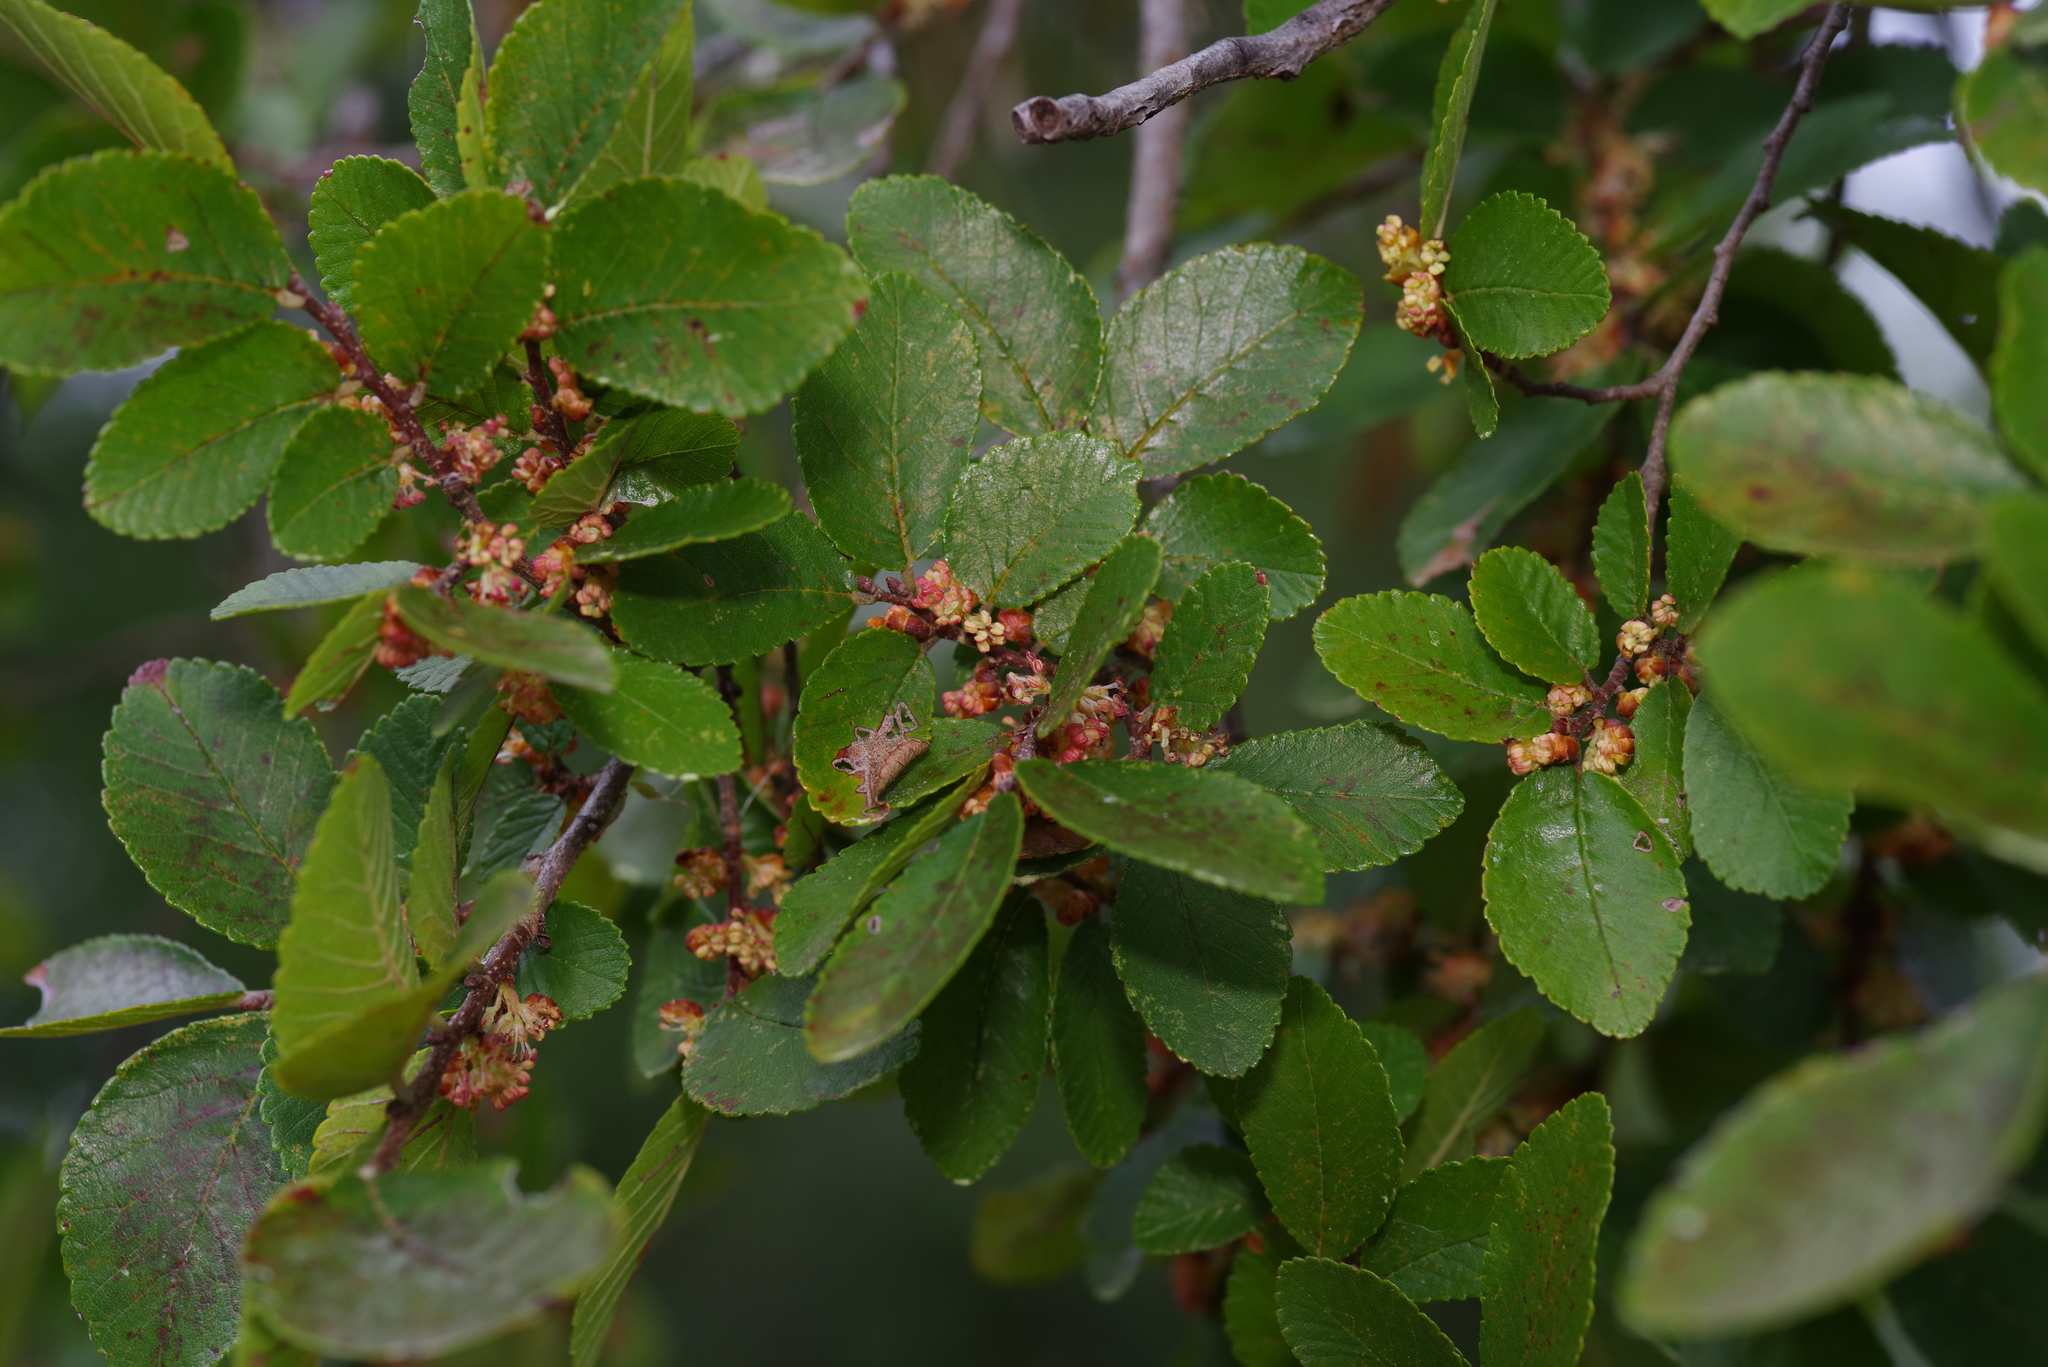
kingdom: Plantae
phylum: Tracheophyta
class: Magnoliopsida
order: Rosales
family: Ulmaceae
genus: Ulmus
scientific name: Ulmus crassifolia
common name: Basket elm
